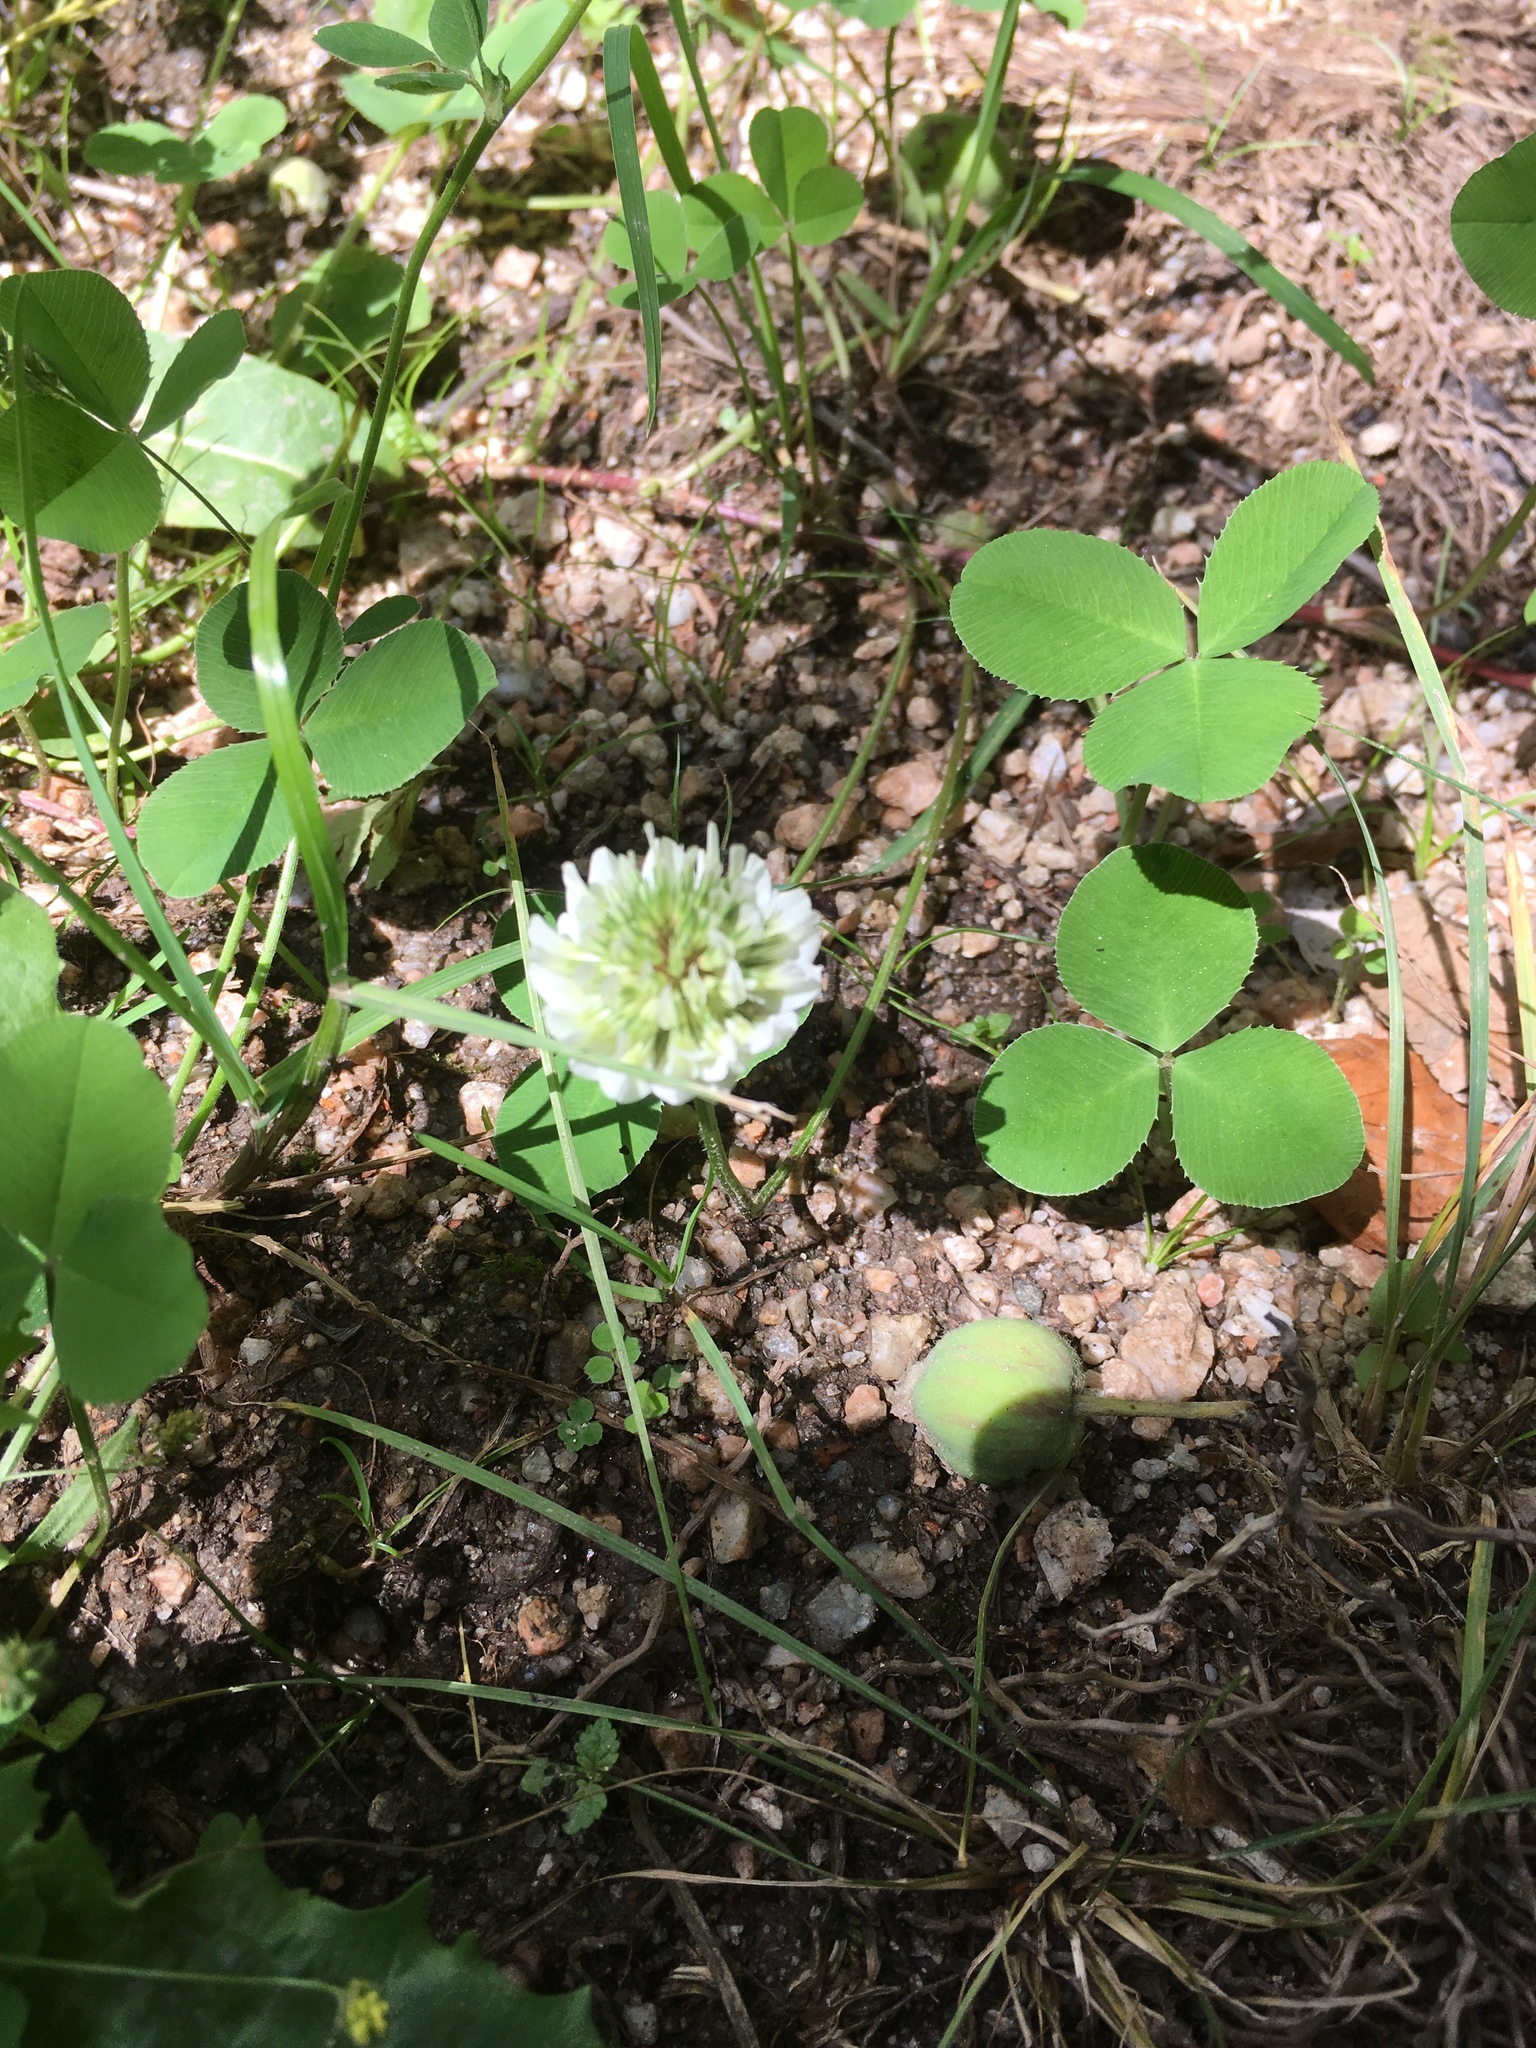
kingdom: Plantae
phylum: Tracheophyta
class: Magnoliopsida
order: Fabales
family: Fabaceae
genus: Trifolium
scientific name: Trifolium repens
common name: White clover
